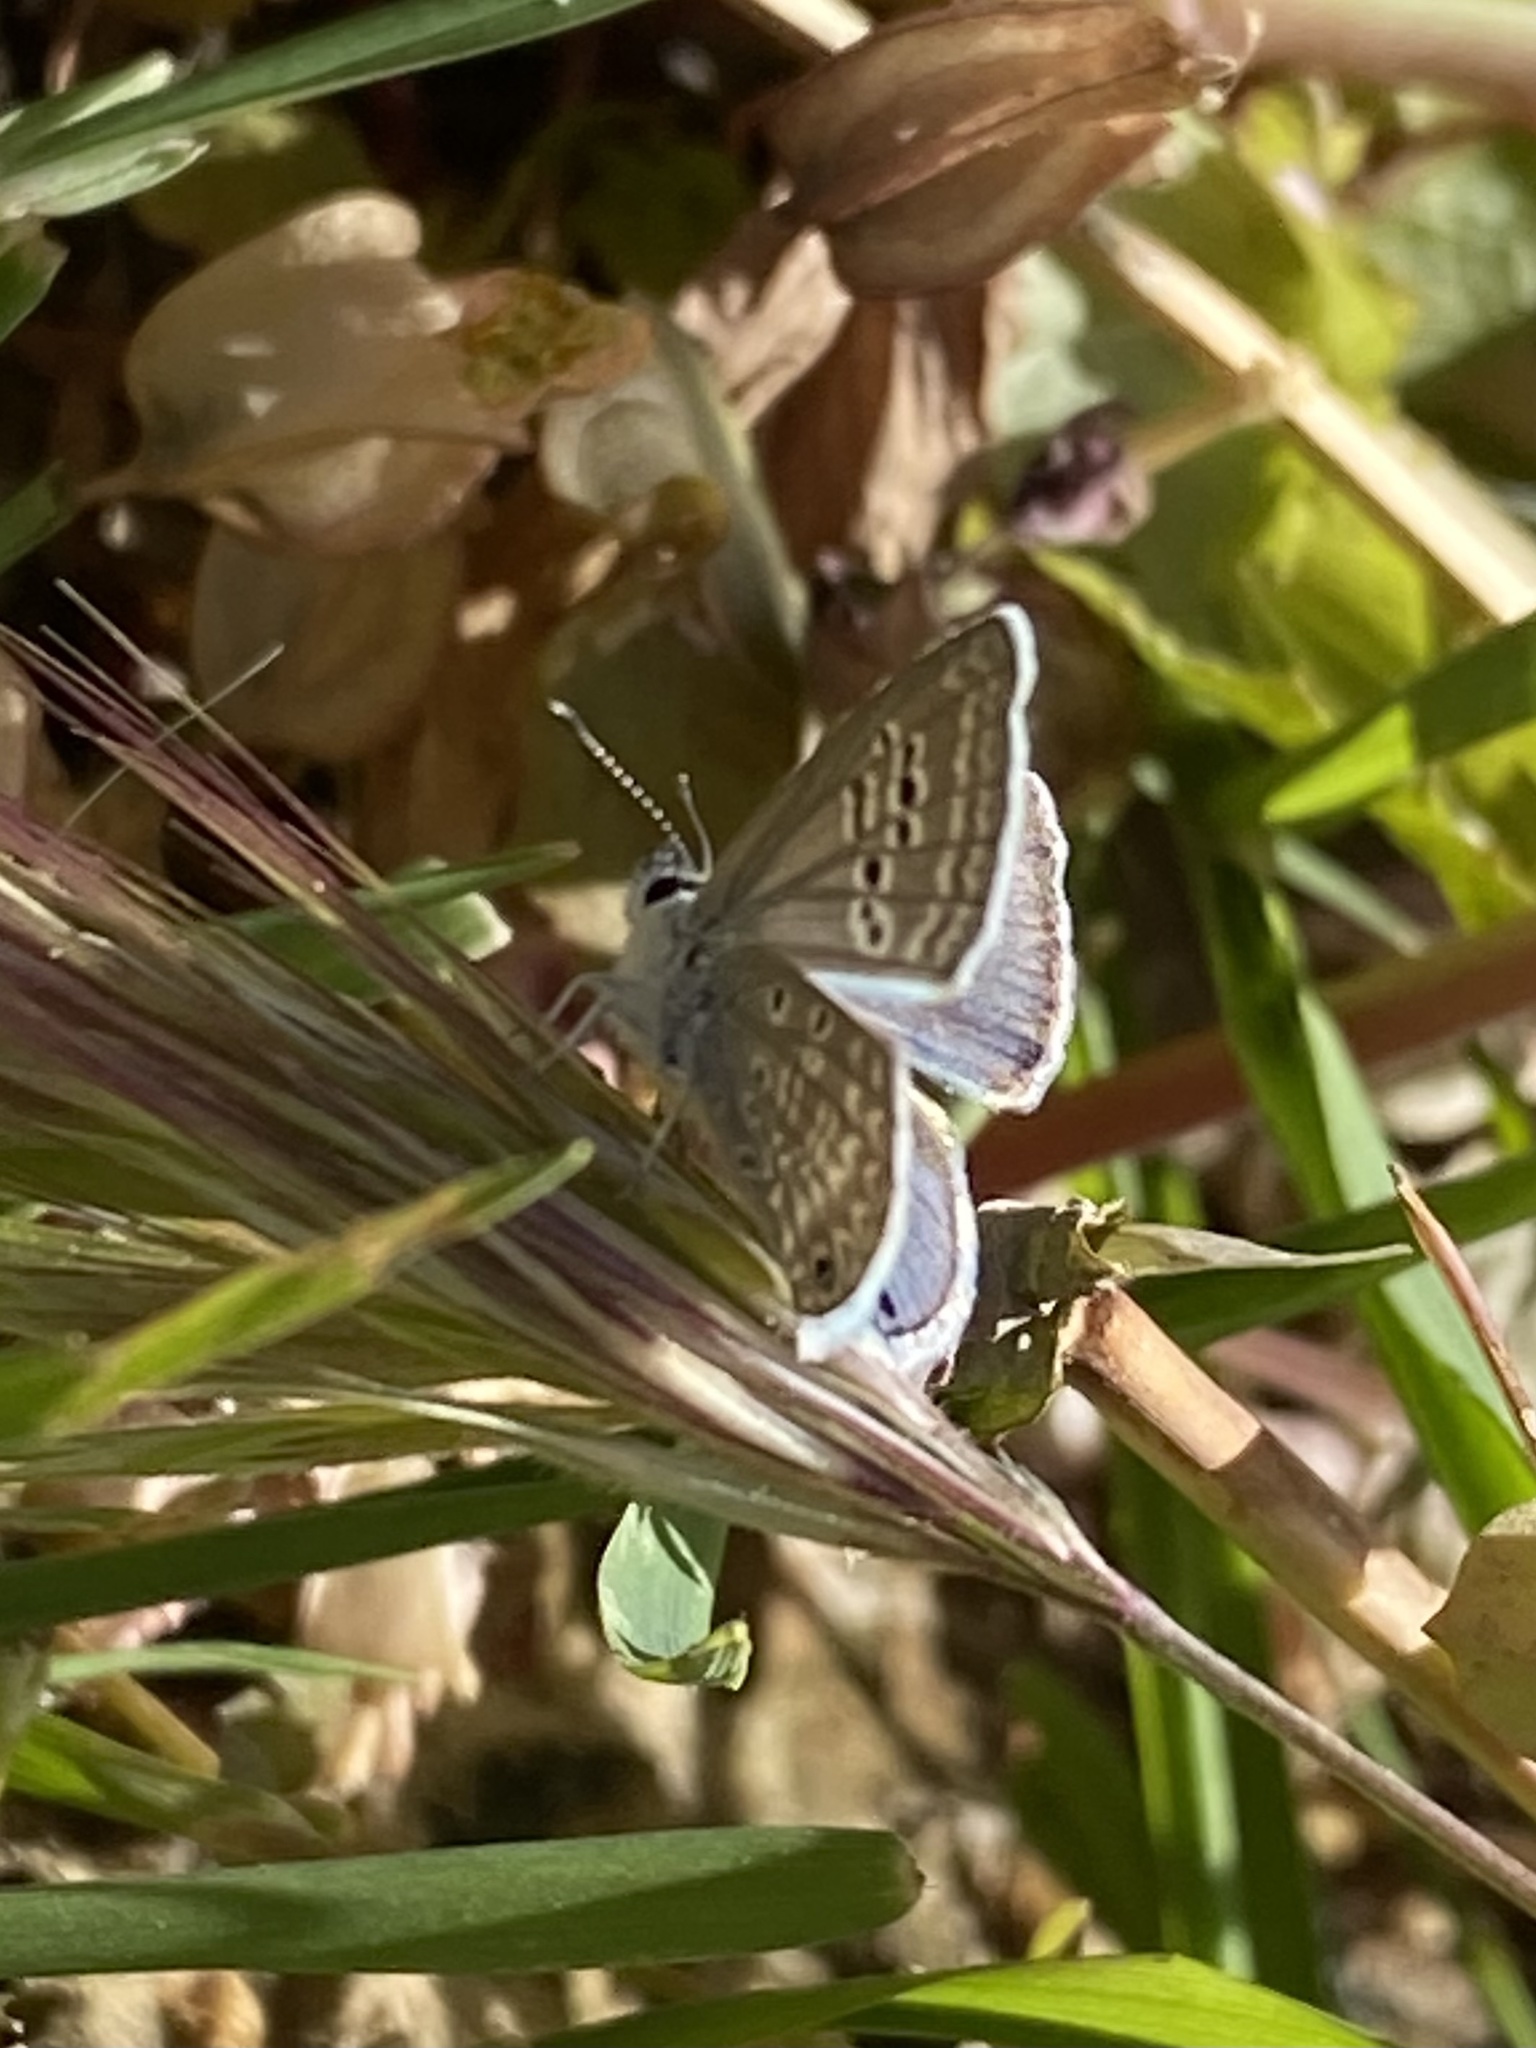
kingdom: Animalia
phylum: Arthropoda
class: Insecta
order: Lepidoptera
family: Lycaenidae
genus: Echinargus
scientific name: Echinargus isola
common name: Reakirt's blue
